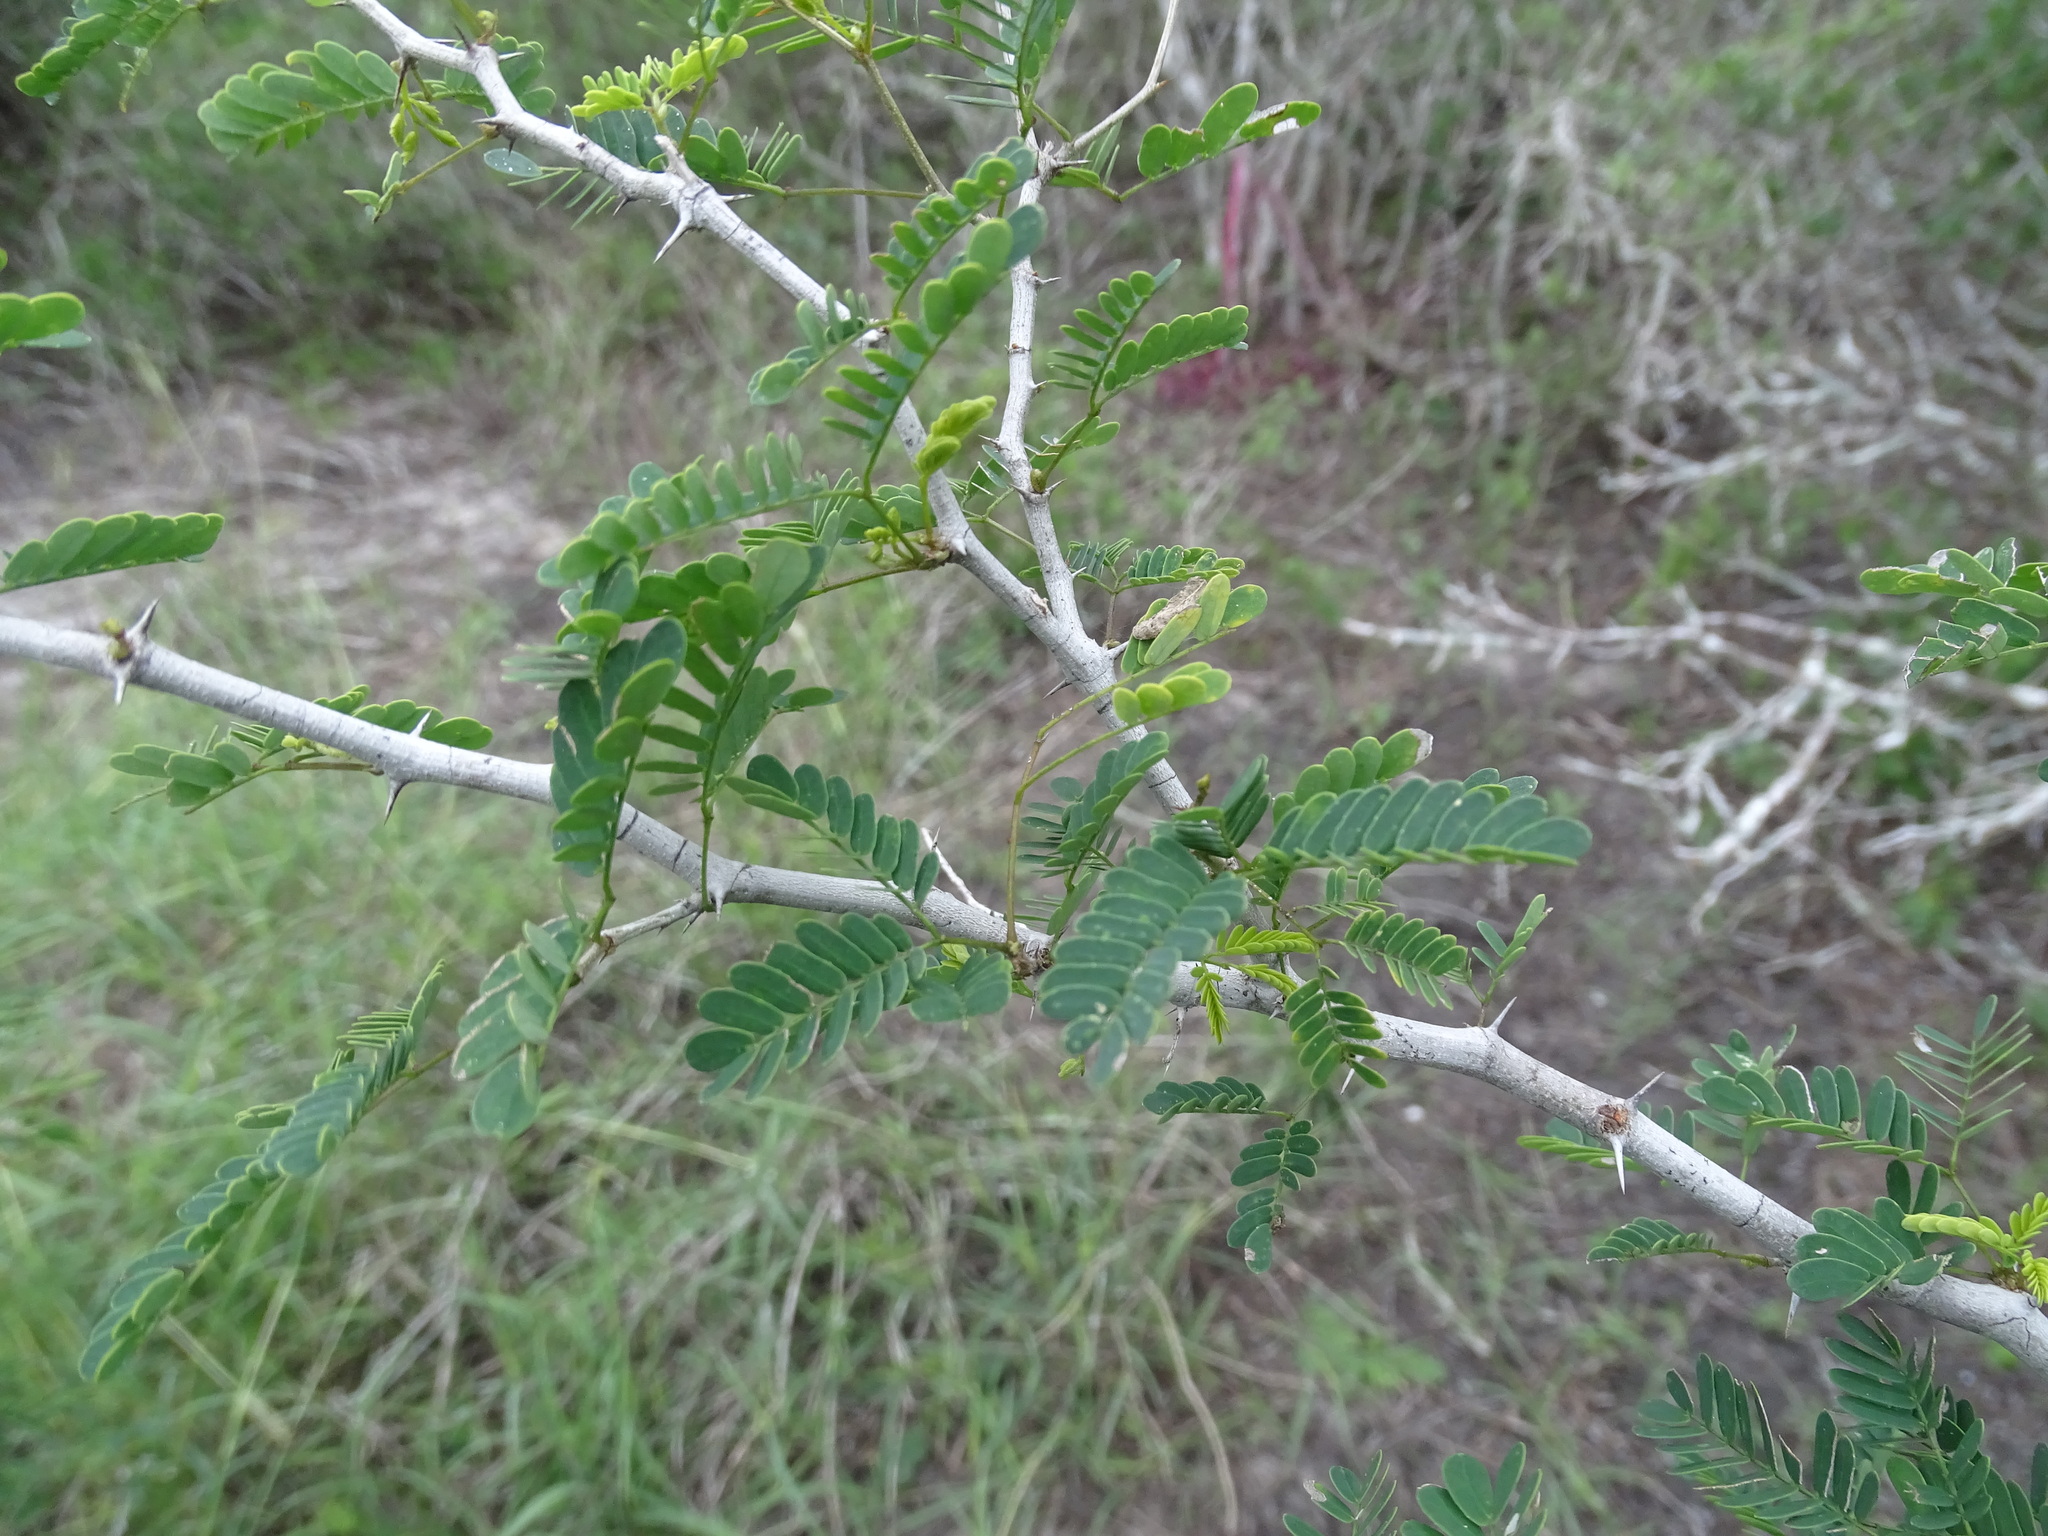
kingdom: Plantae
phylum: Tracheophyta
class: Magnoliopsida
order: Fabales
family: Fabaceae
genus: Havardia
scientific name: Havardia pallens
